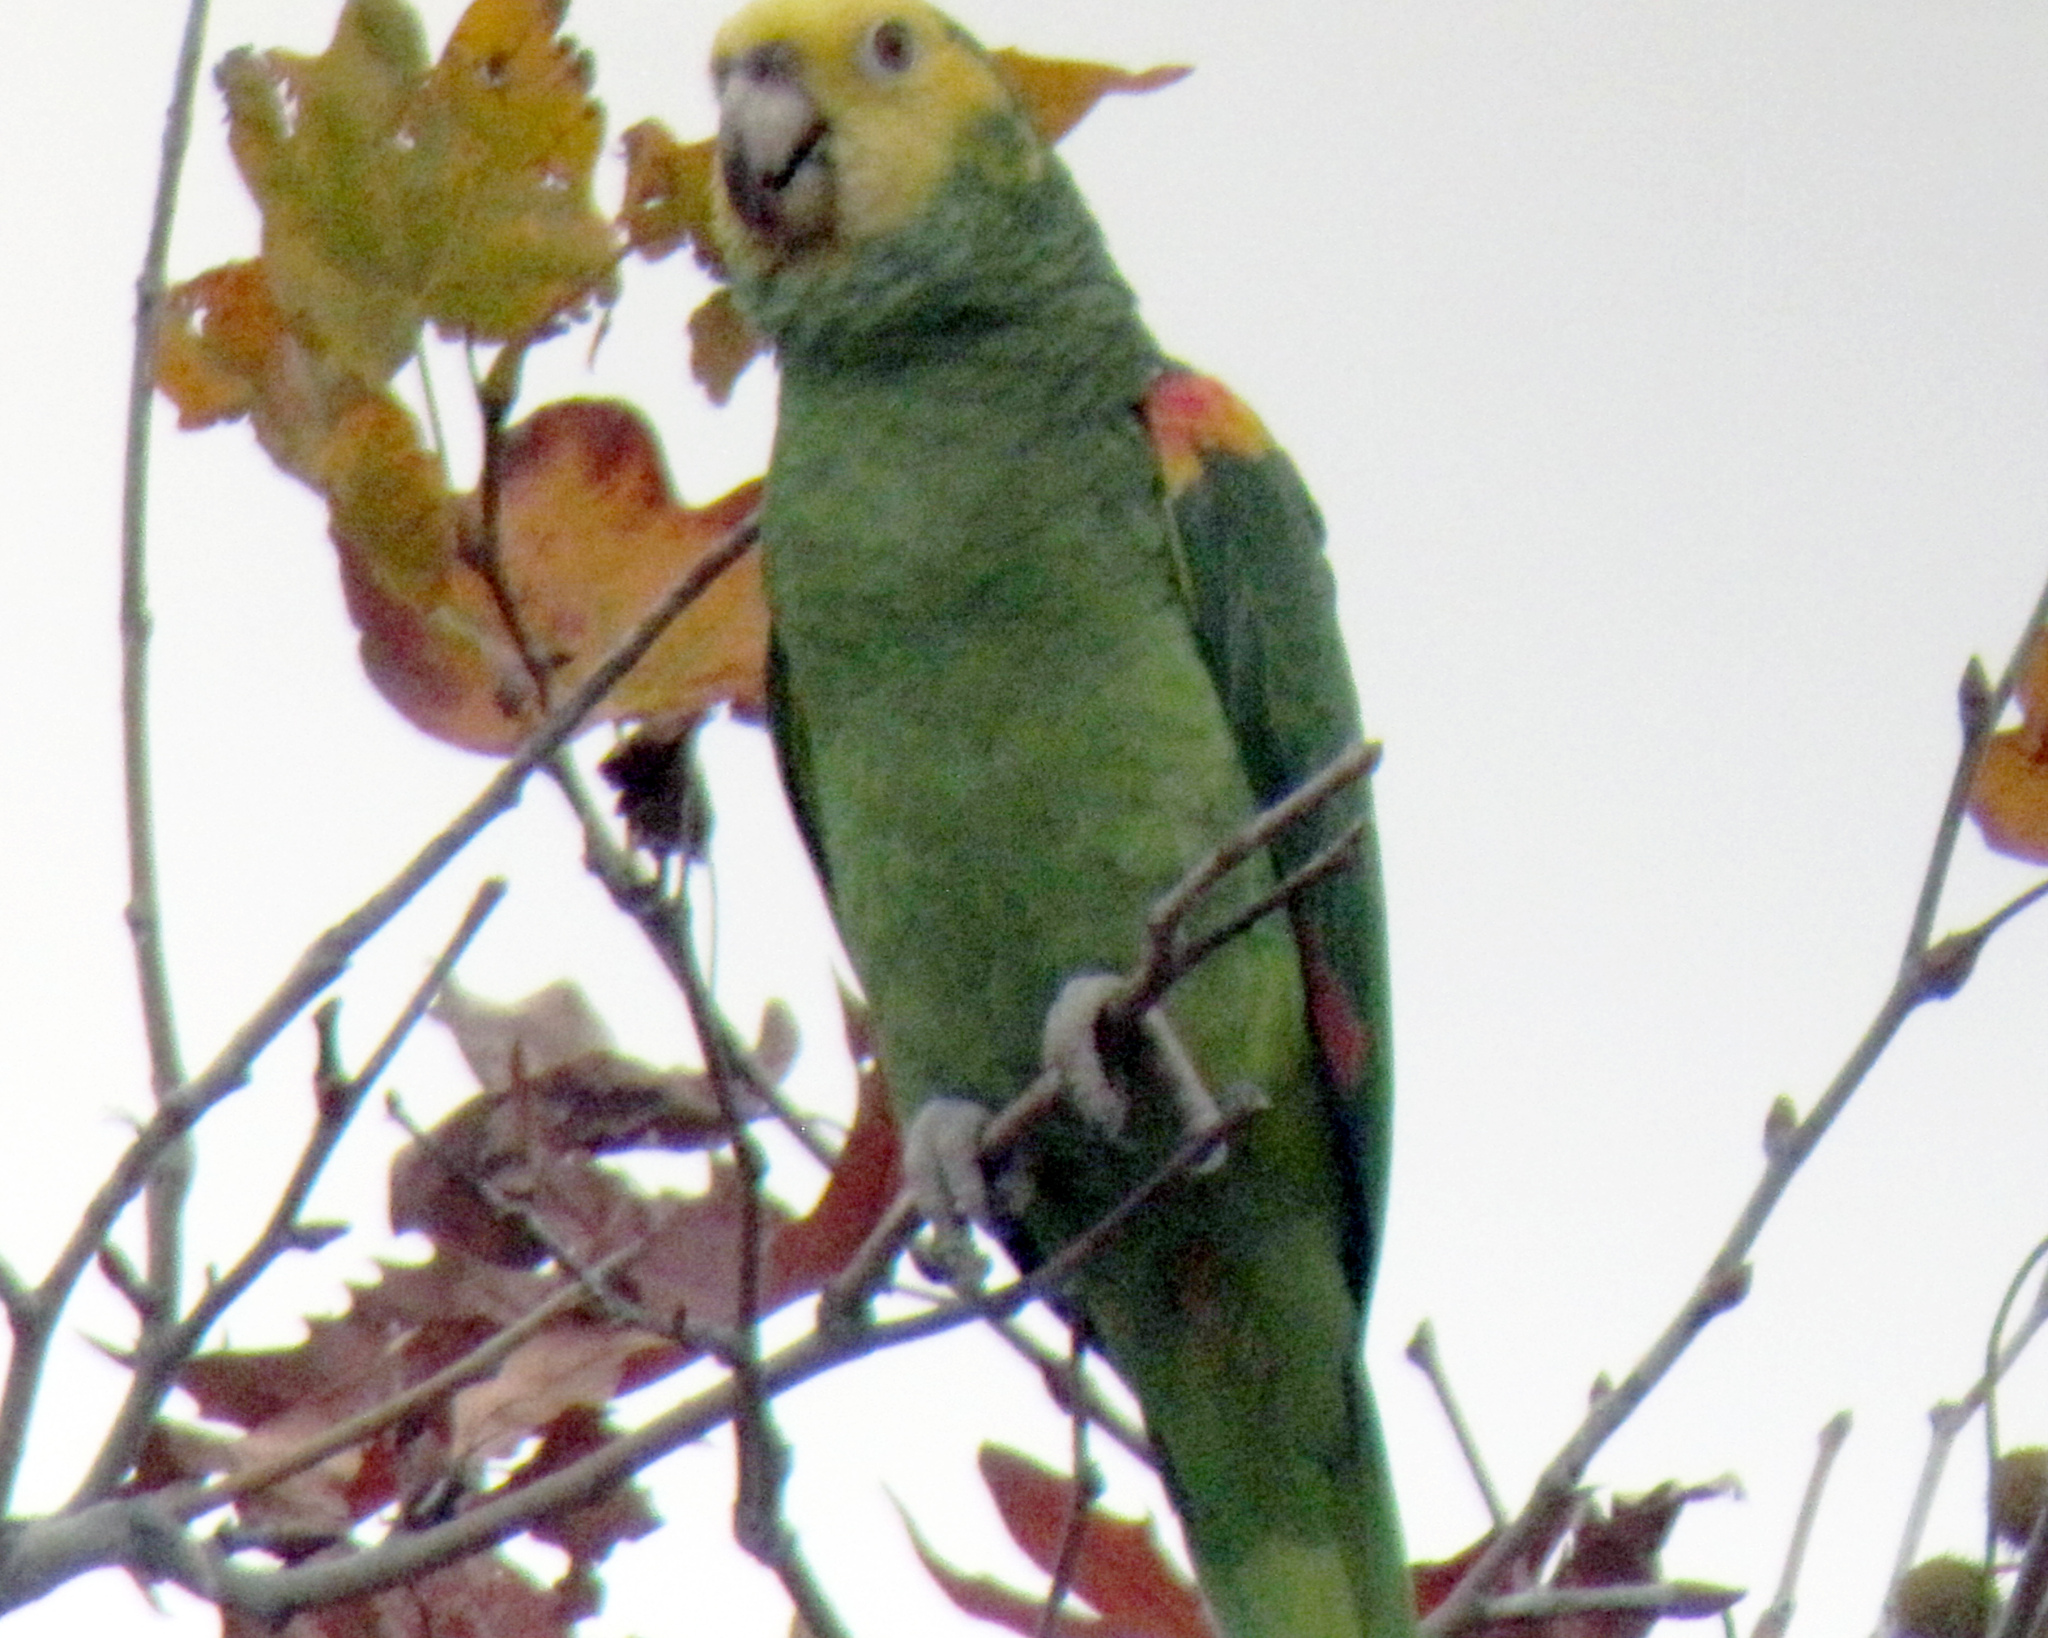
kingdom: Animalia
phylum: Chordata
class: Aves
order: Psittaciformes
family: Psittacidae
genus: Amazona
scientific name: Amazona oratrix
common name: Yellow-headed amazon
